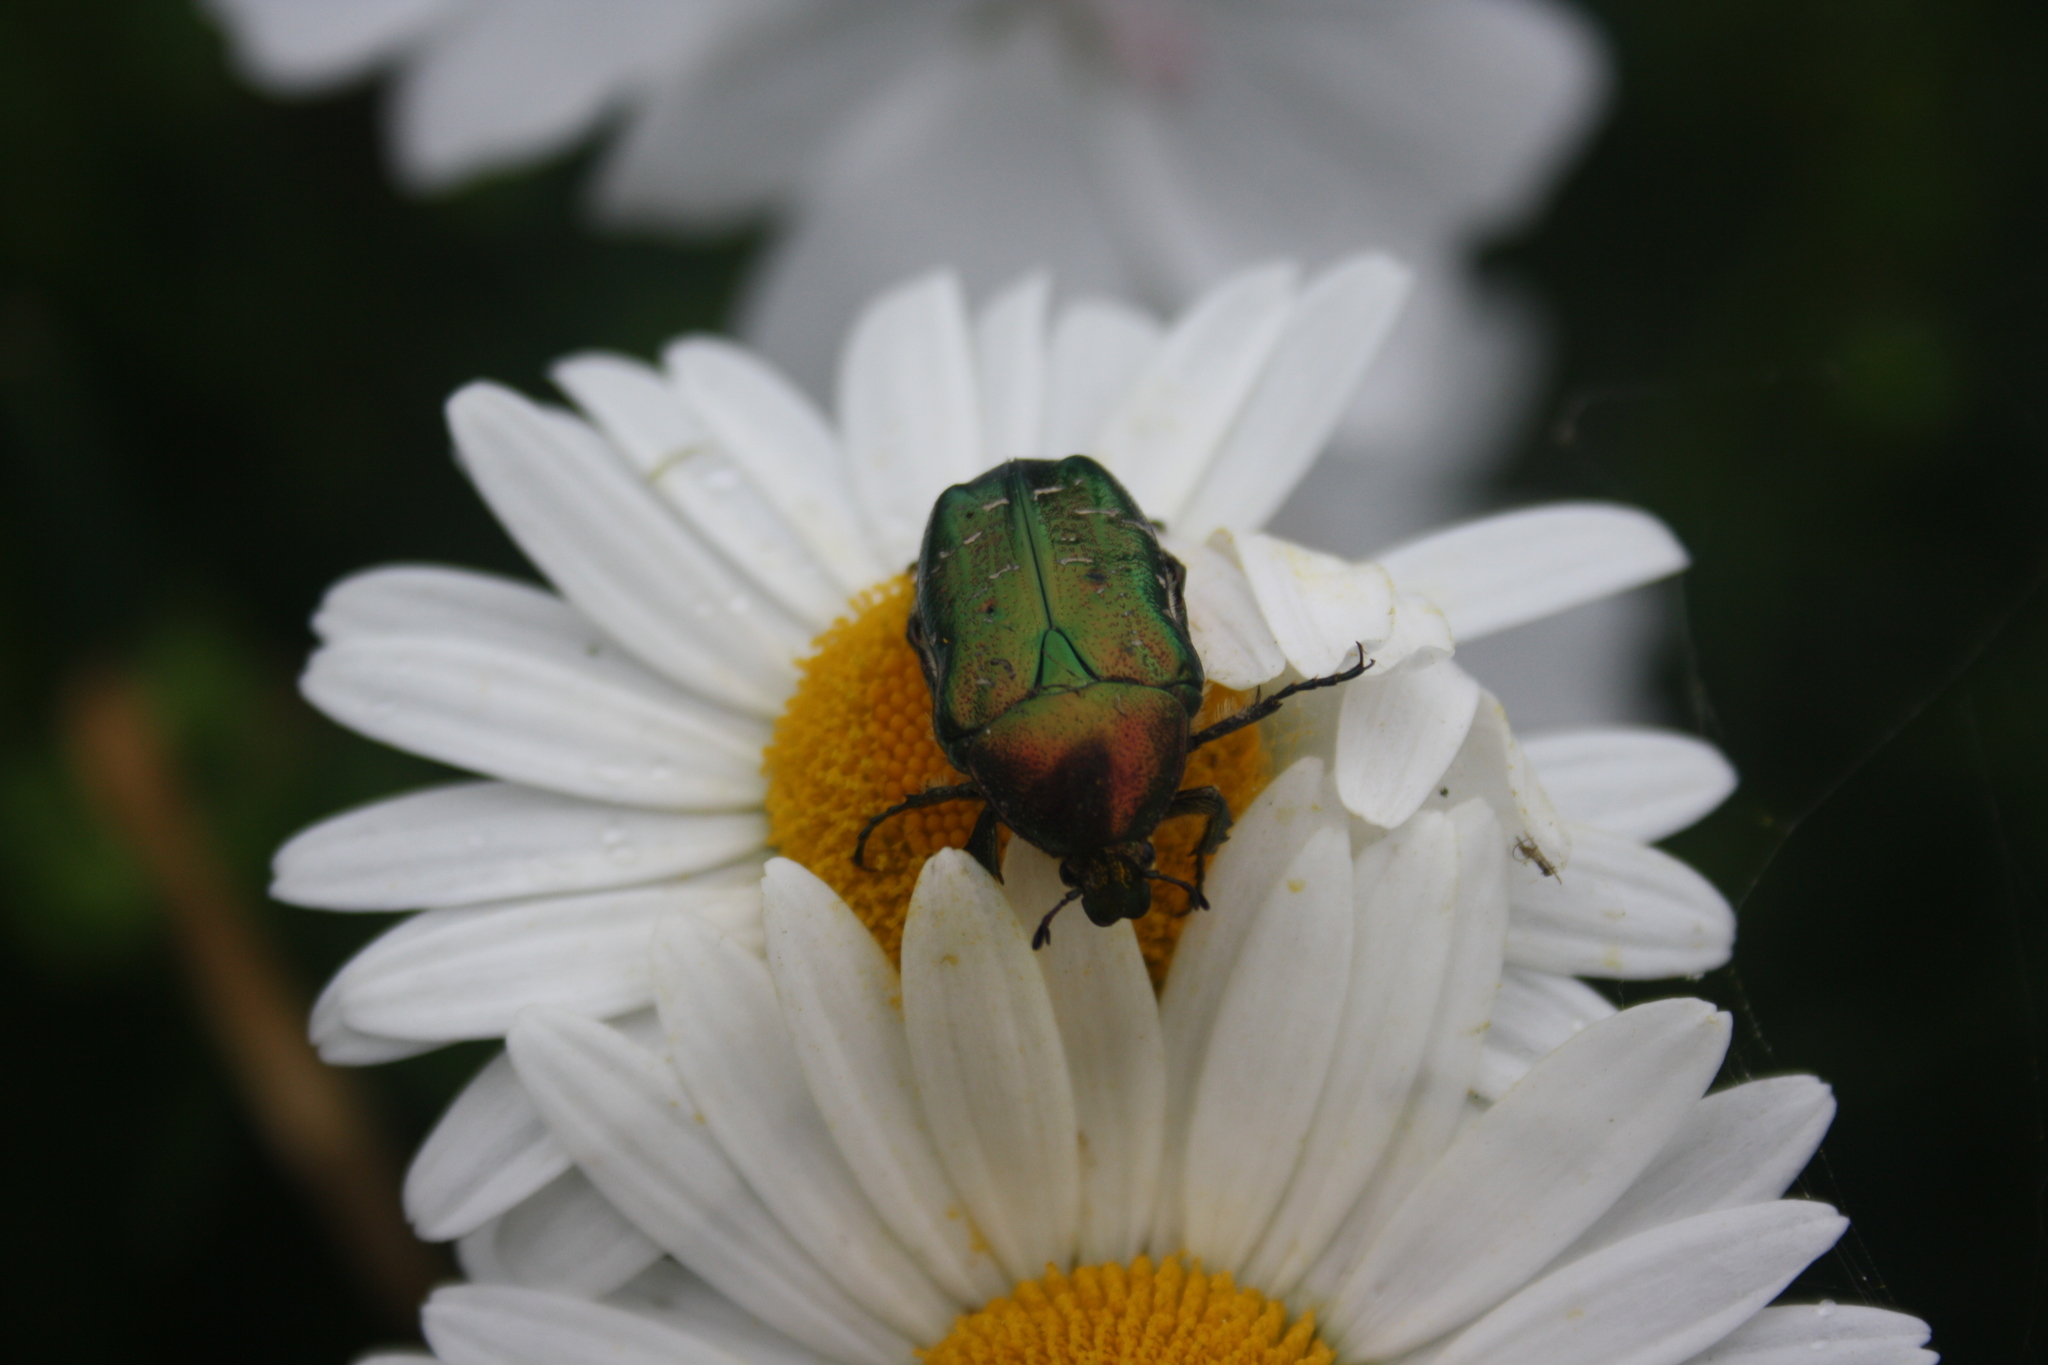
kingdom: Animalia
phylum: Arthropoda
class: Insecta
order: Coleoptera
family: Scarabaeidae
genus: Cetonia
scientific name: Cetonia aurata
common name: Rose chafer
